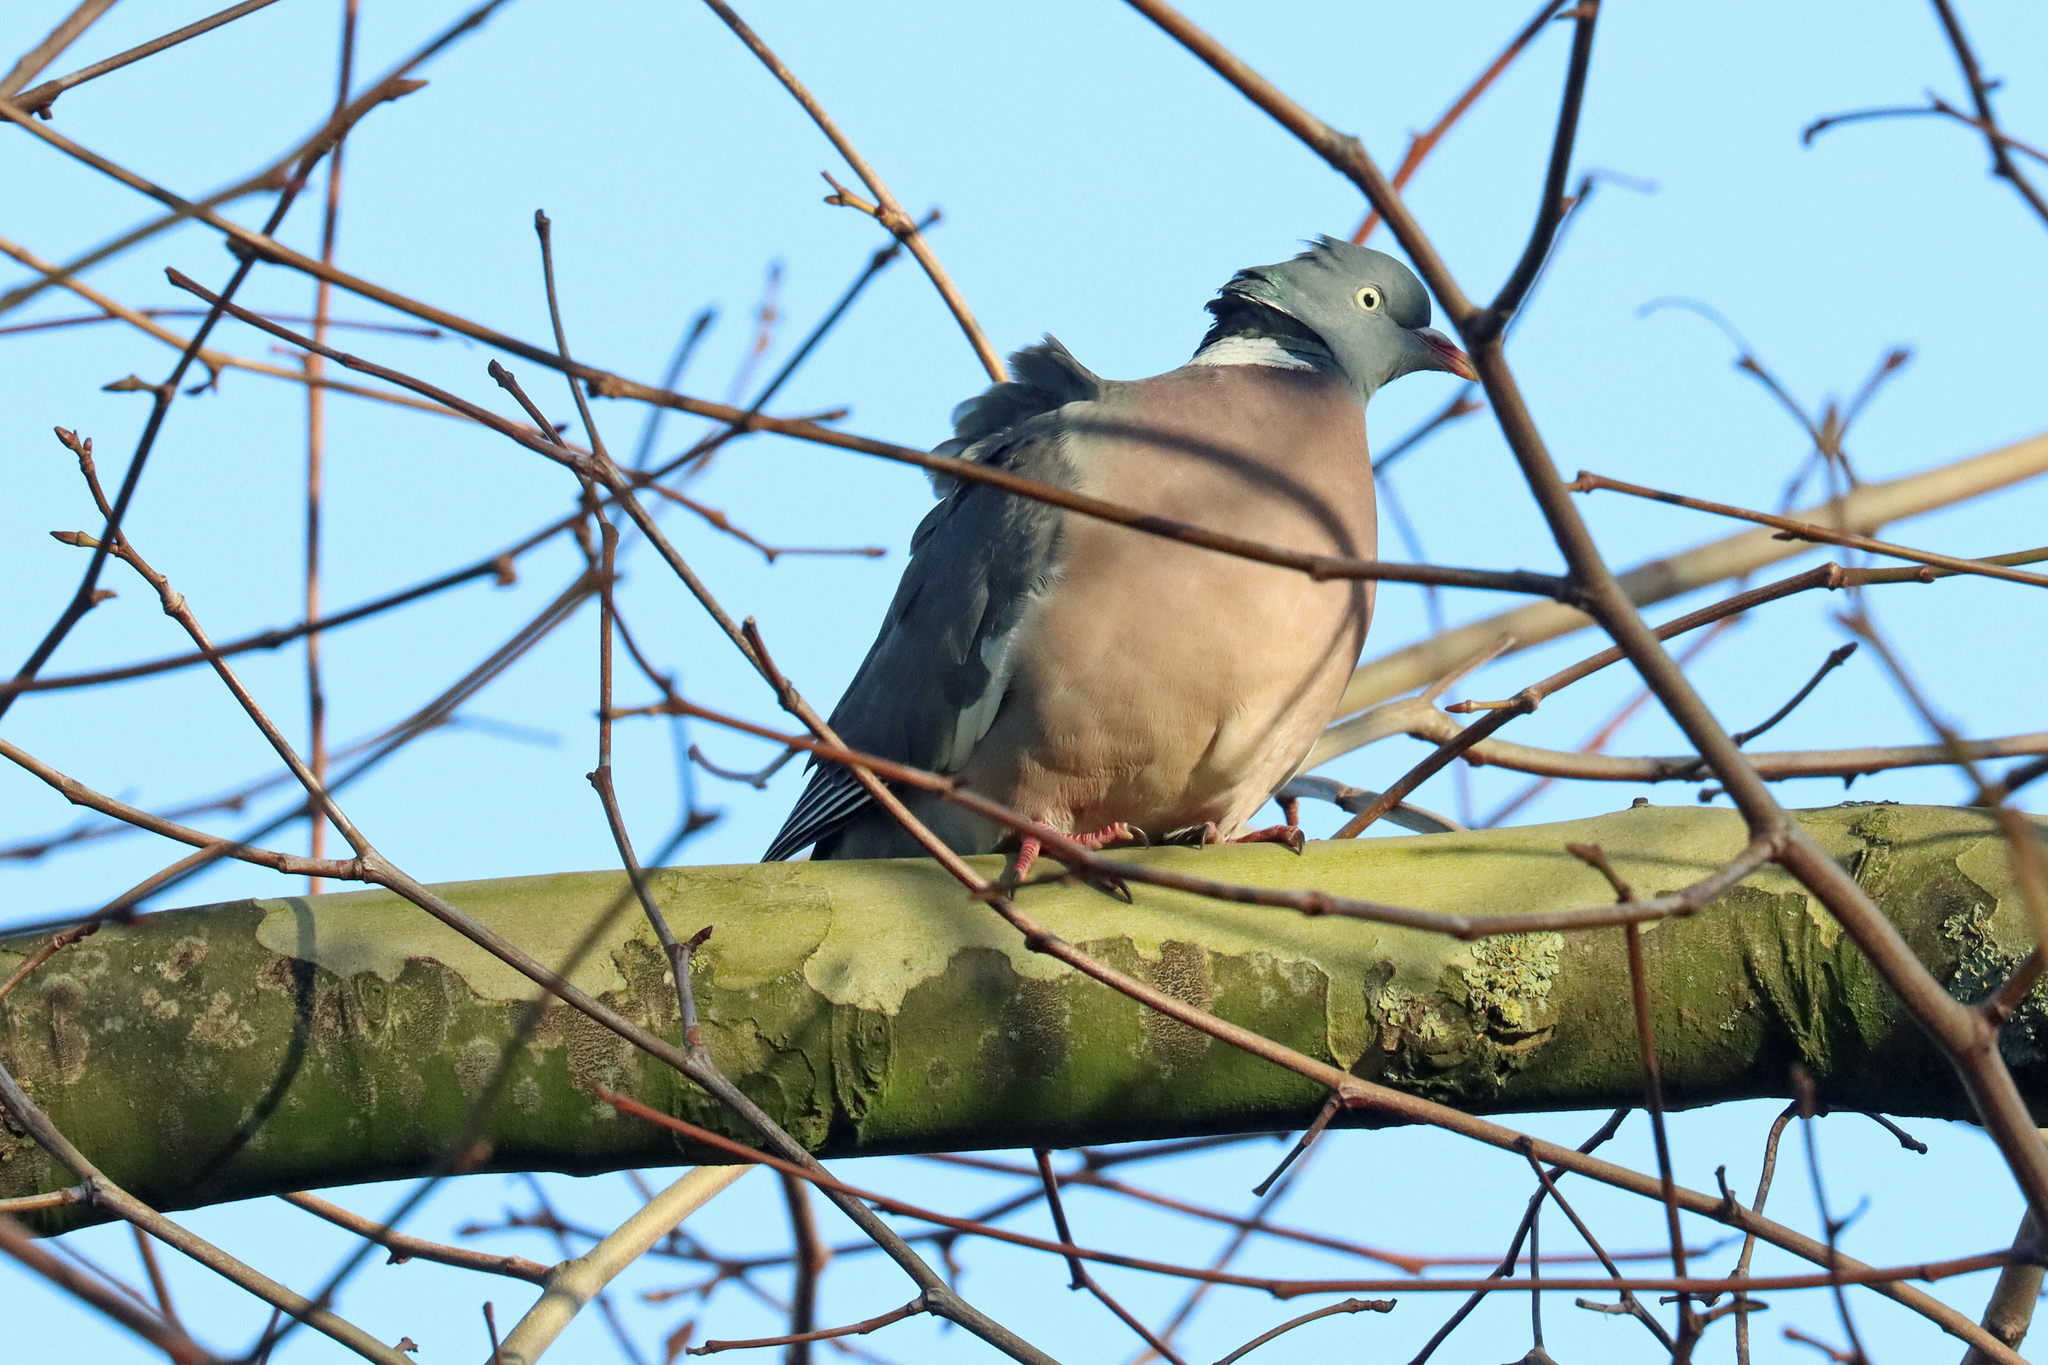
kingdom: Animalia
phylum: Chordata
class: Aves
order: Columbiformes
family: Columbidae
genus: Columba
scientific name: Columba palumbus
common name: Common wood pigeon
